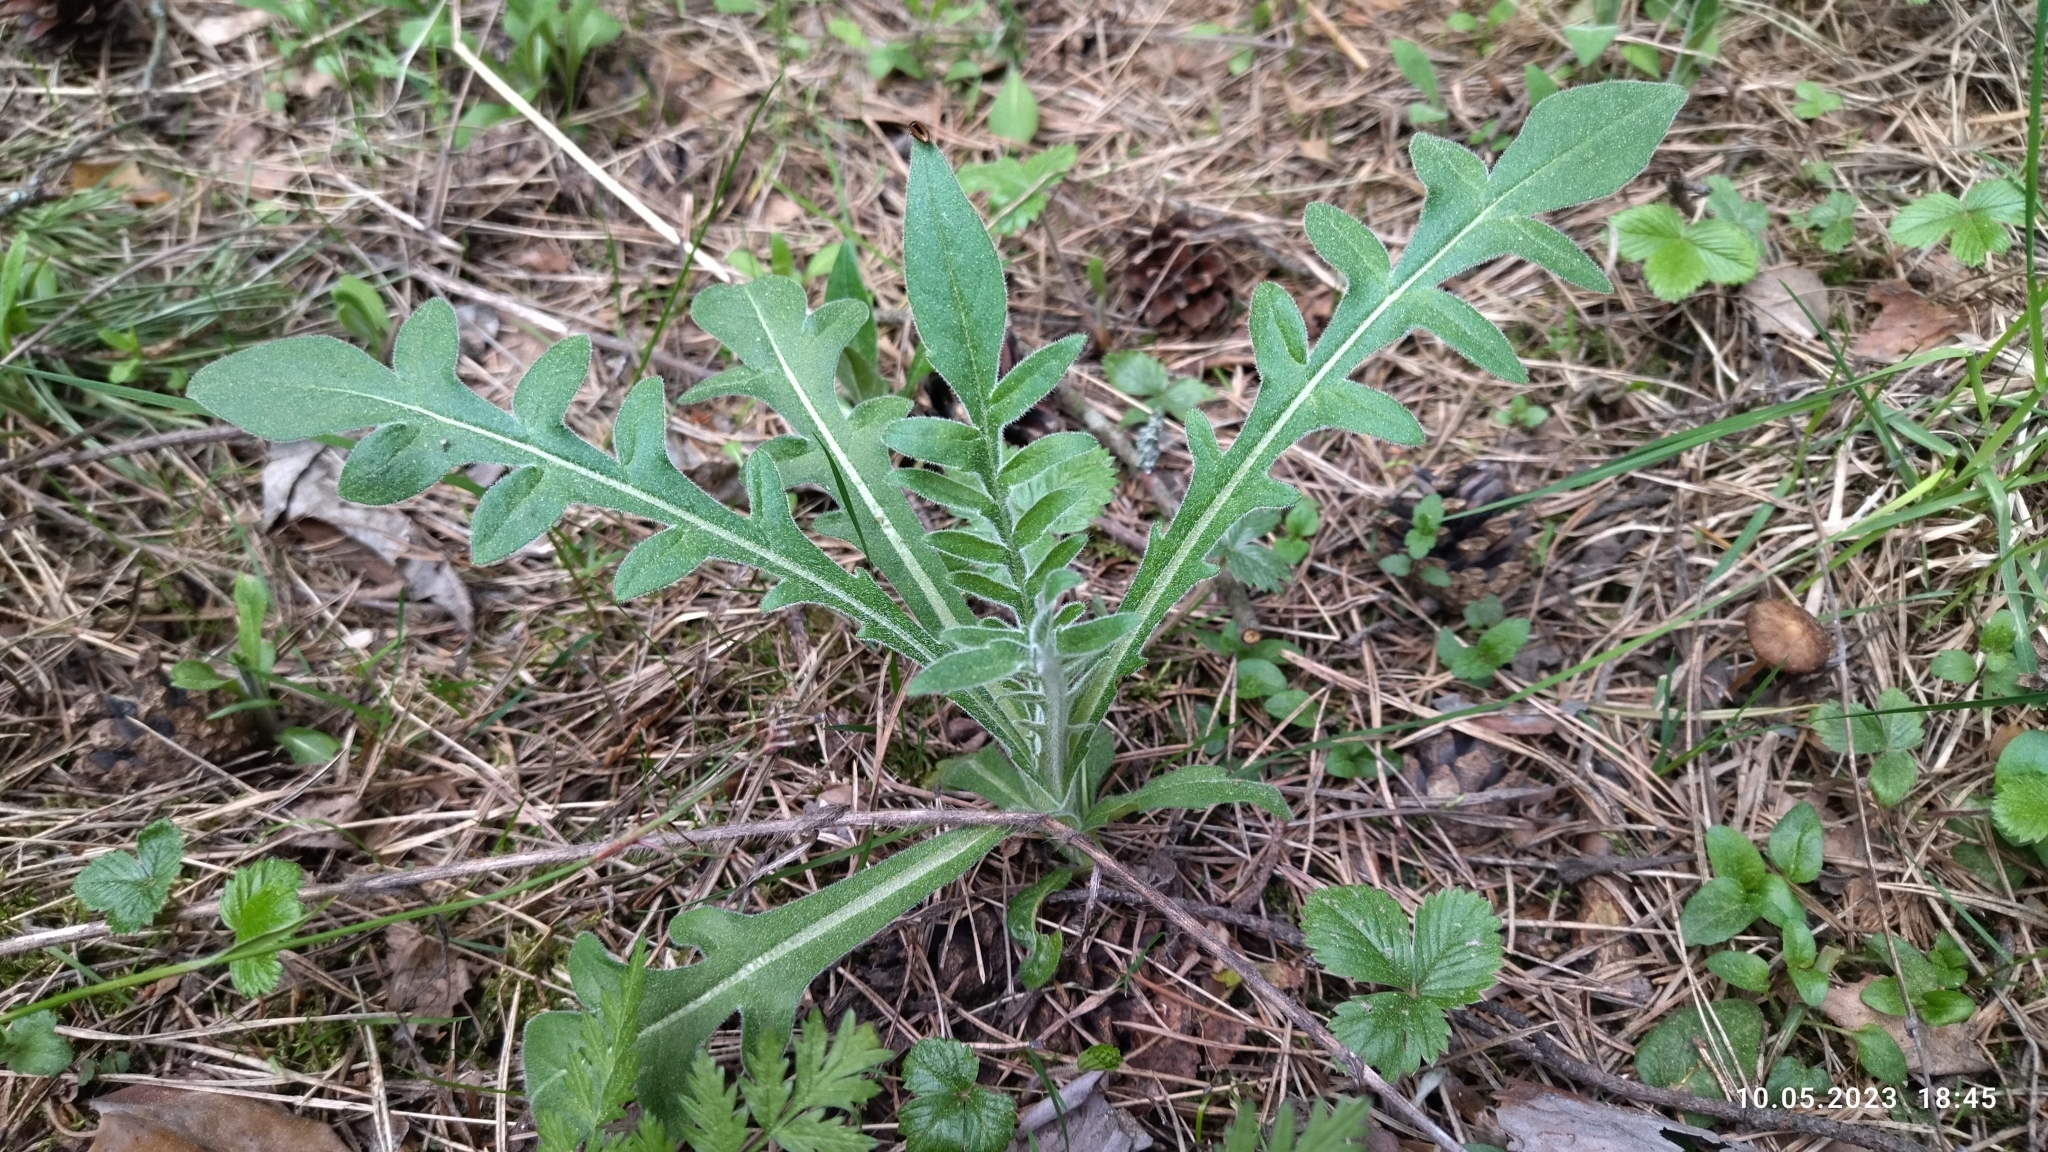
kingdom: Plantae
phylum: Tracheophyta
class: Magnoliopsida
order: Dipsacales
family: Caprifoliaceae
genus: Knautia
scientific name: Knautia arvensis
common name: Field scabiosa
